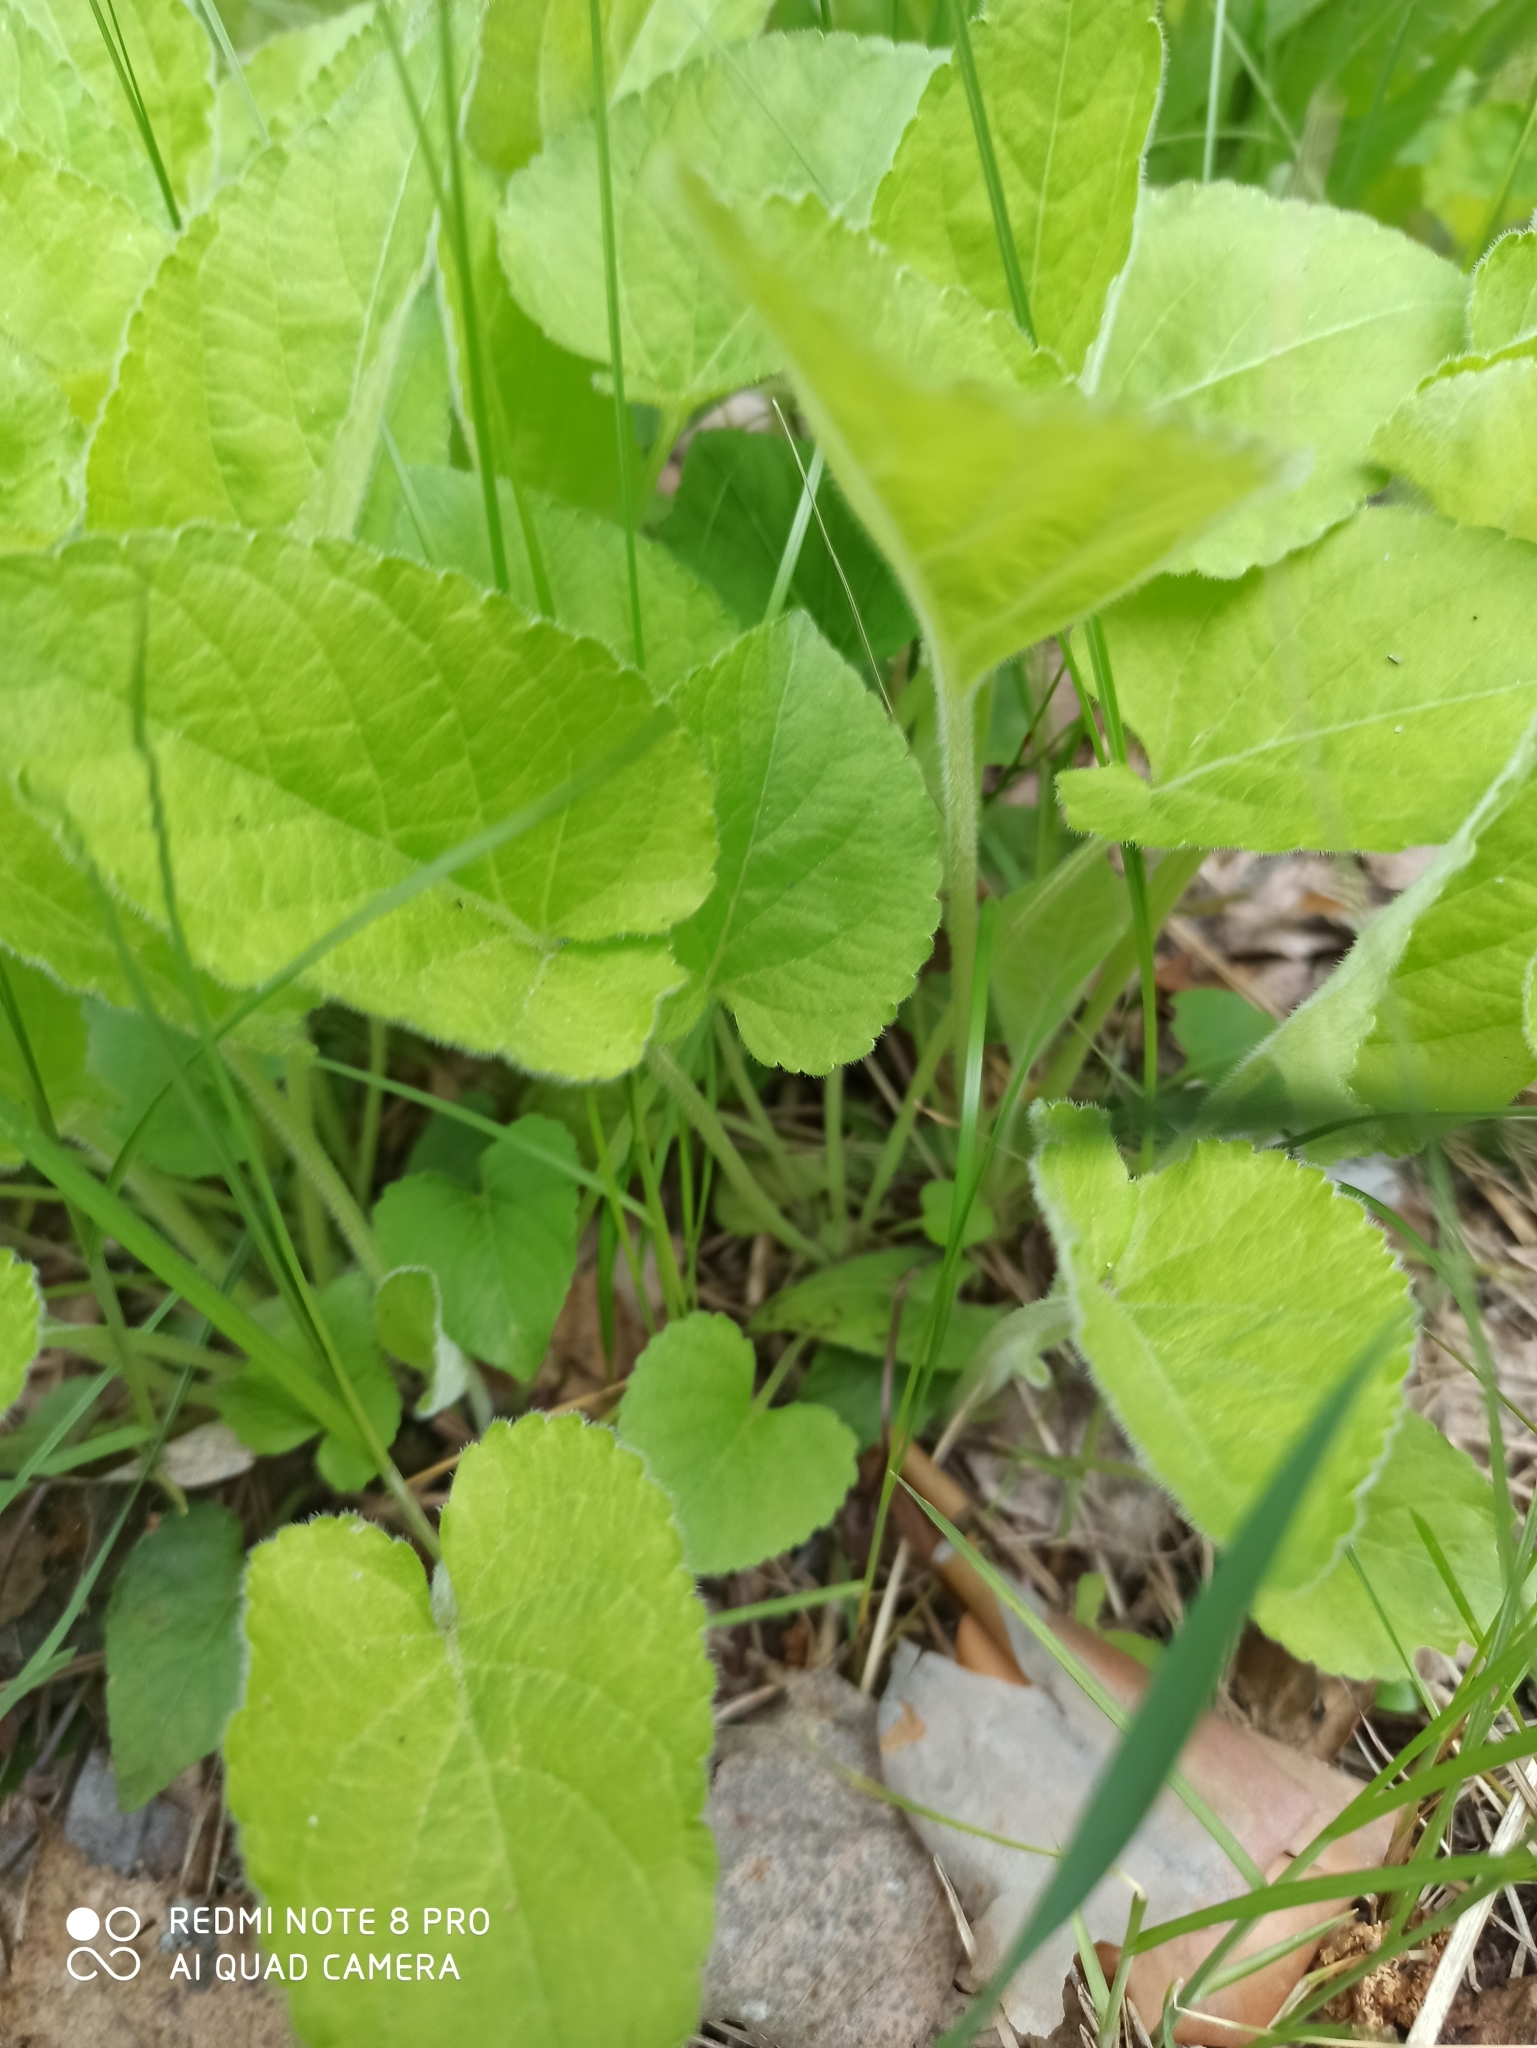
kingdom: Plantae
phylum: Tracheophyta
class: Magnoliopsida
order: Malpighiales
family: Violaceae
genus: Viola
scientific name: Viola hirta
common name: Hairy violet
